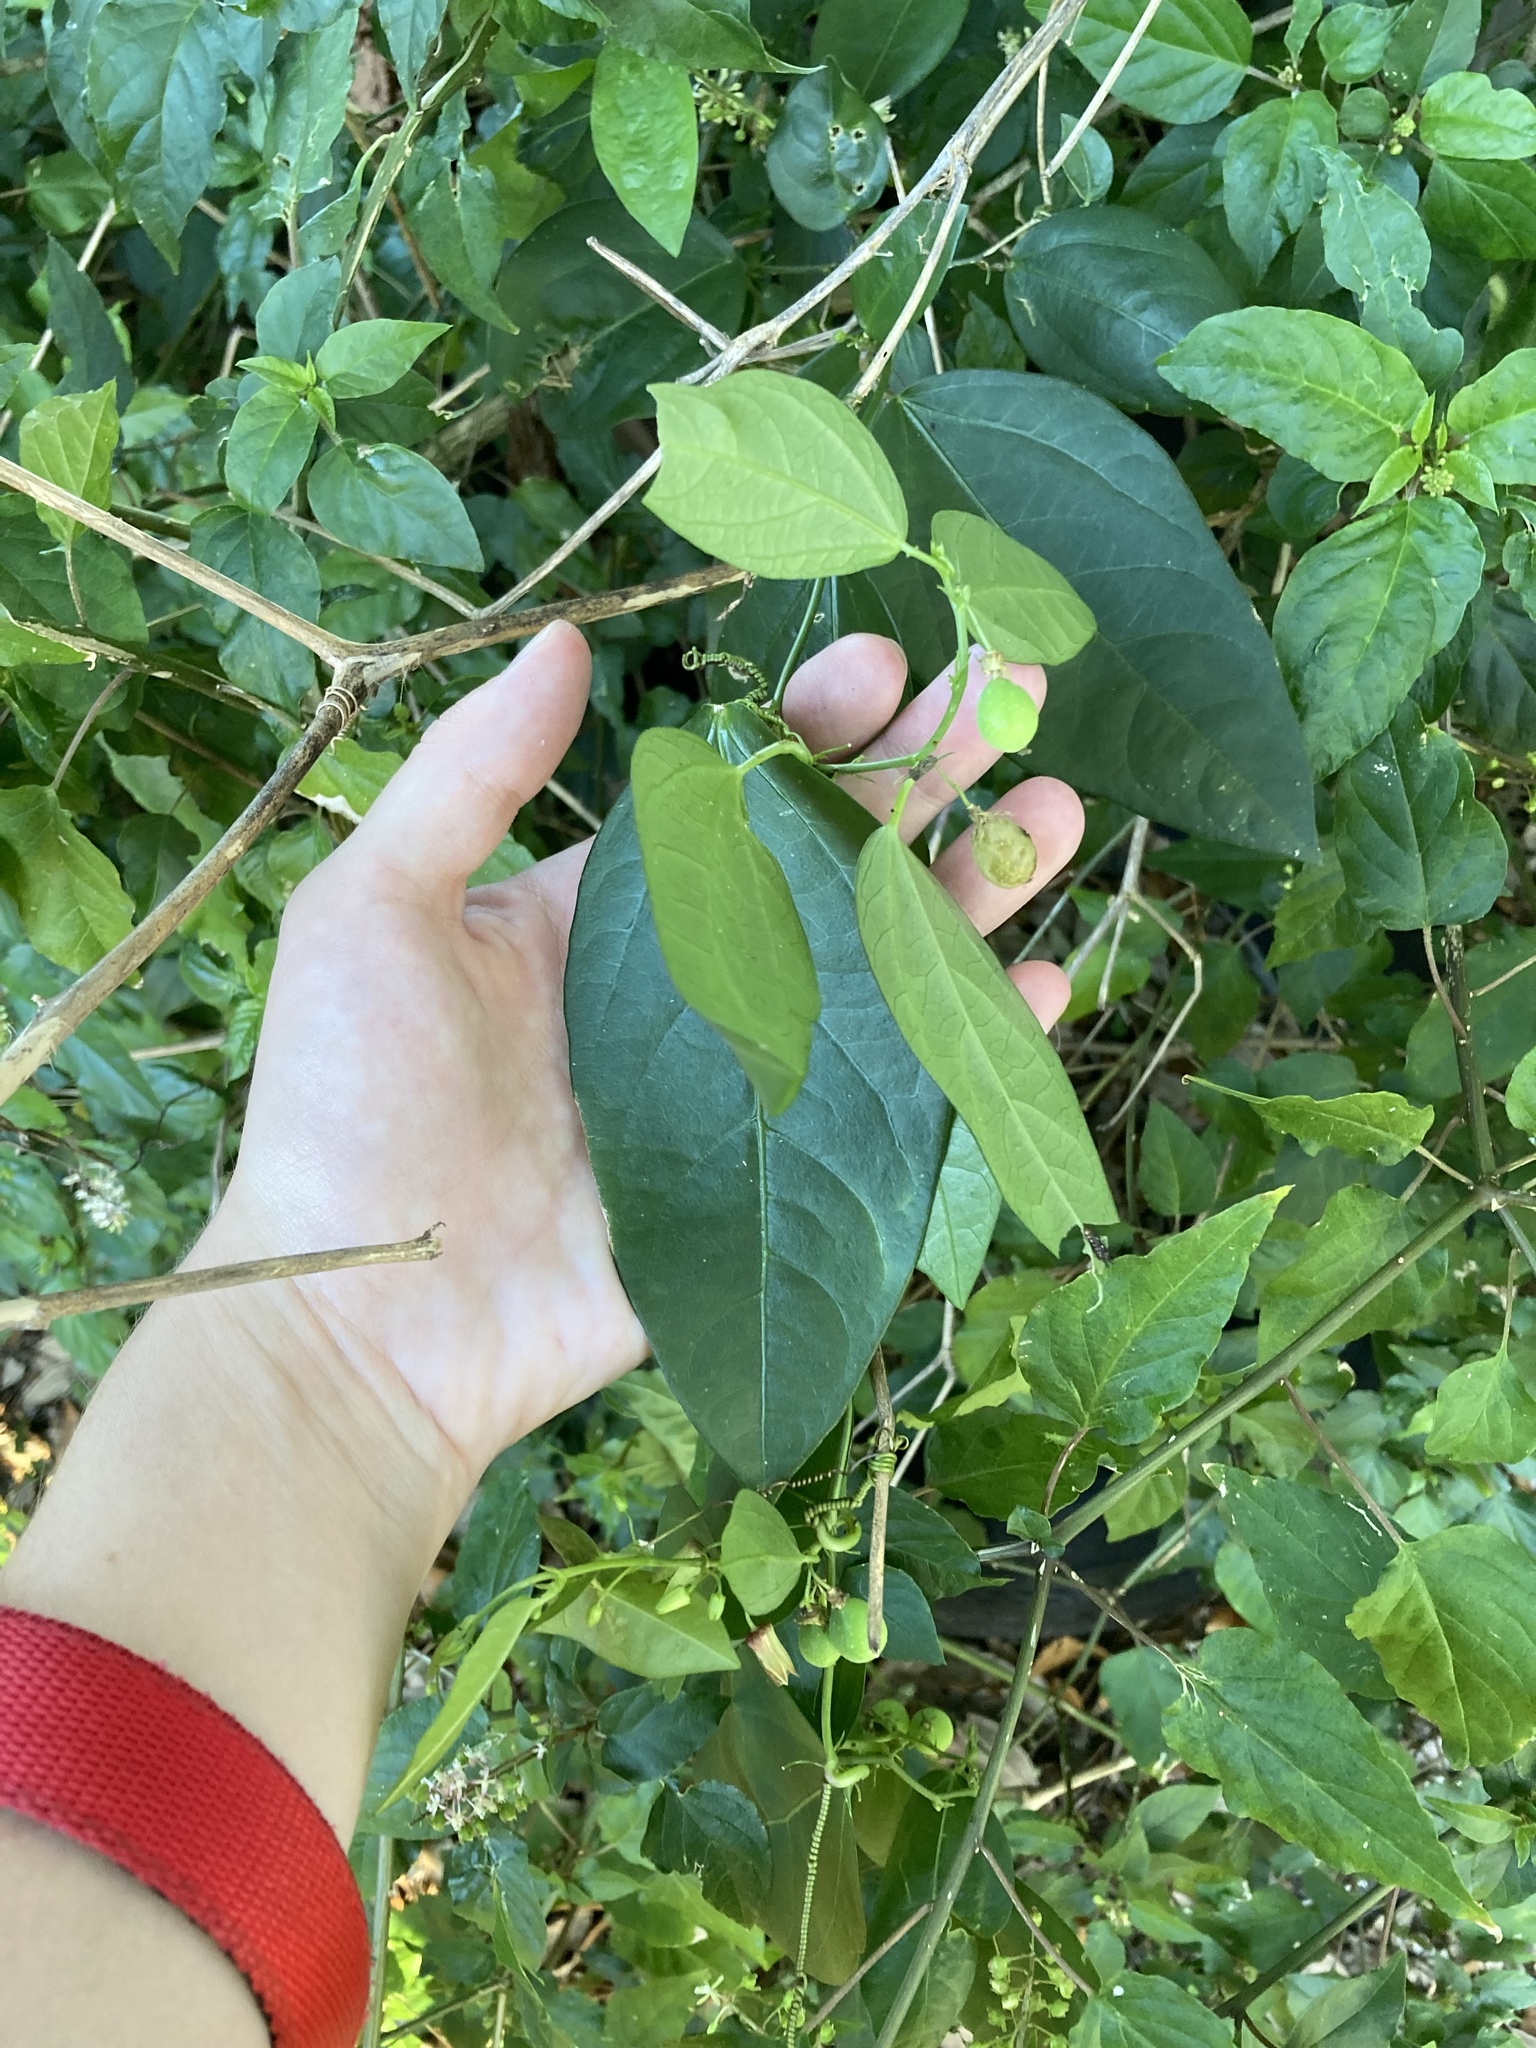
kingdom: Plantae
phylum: Tracheophyta
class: Magnoliopsida
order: Malpighiales
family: Passifloraceae
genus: Passiflora
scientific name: Passiflora pallida
